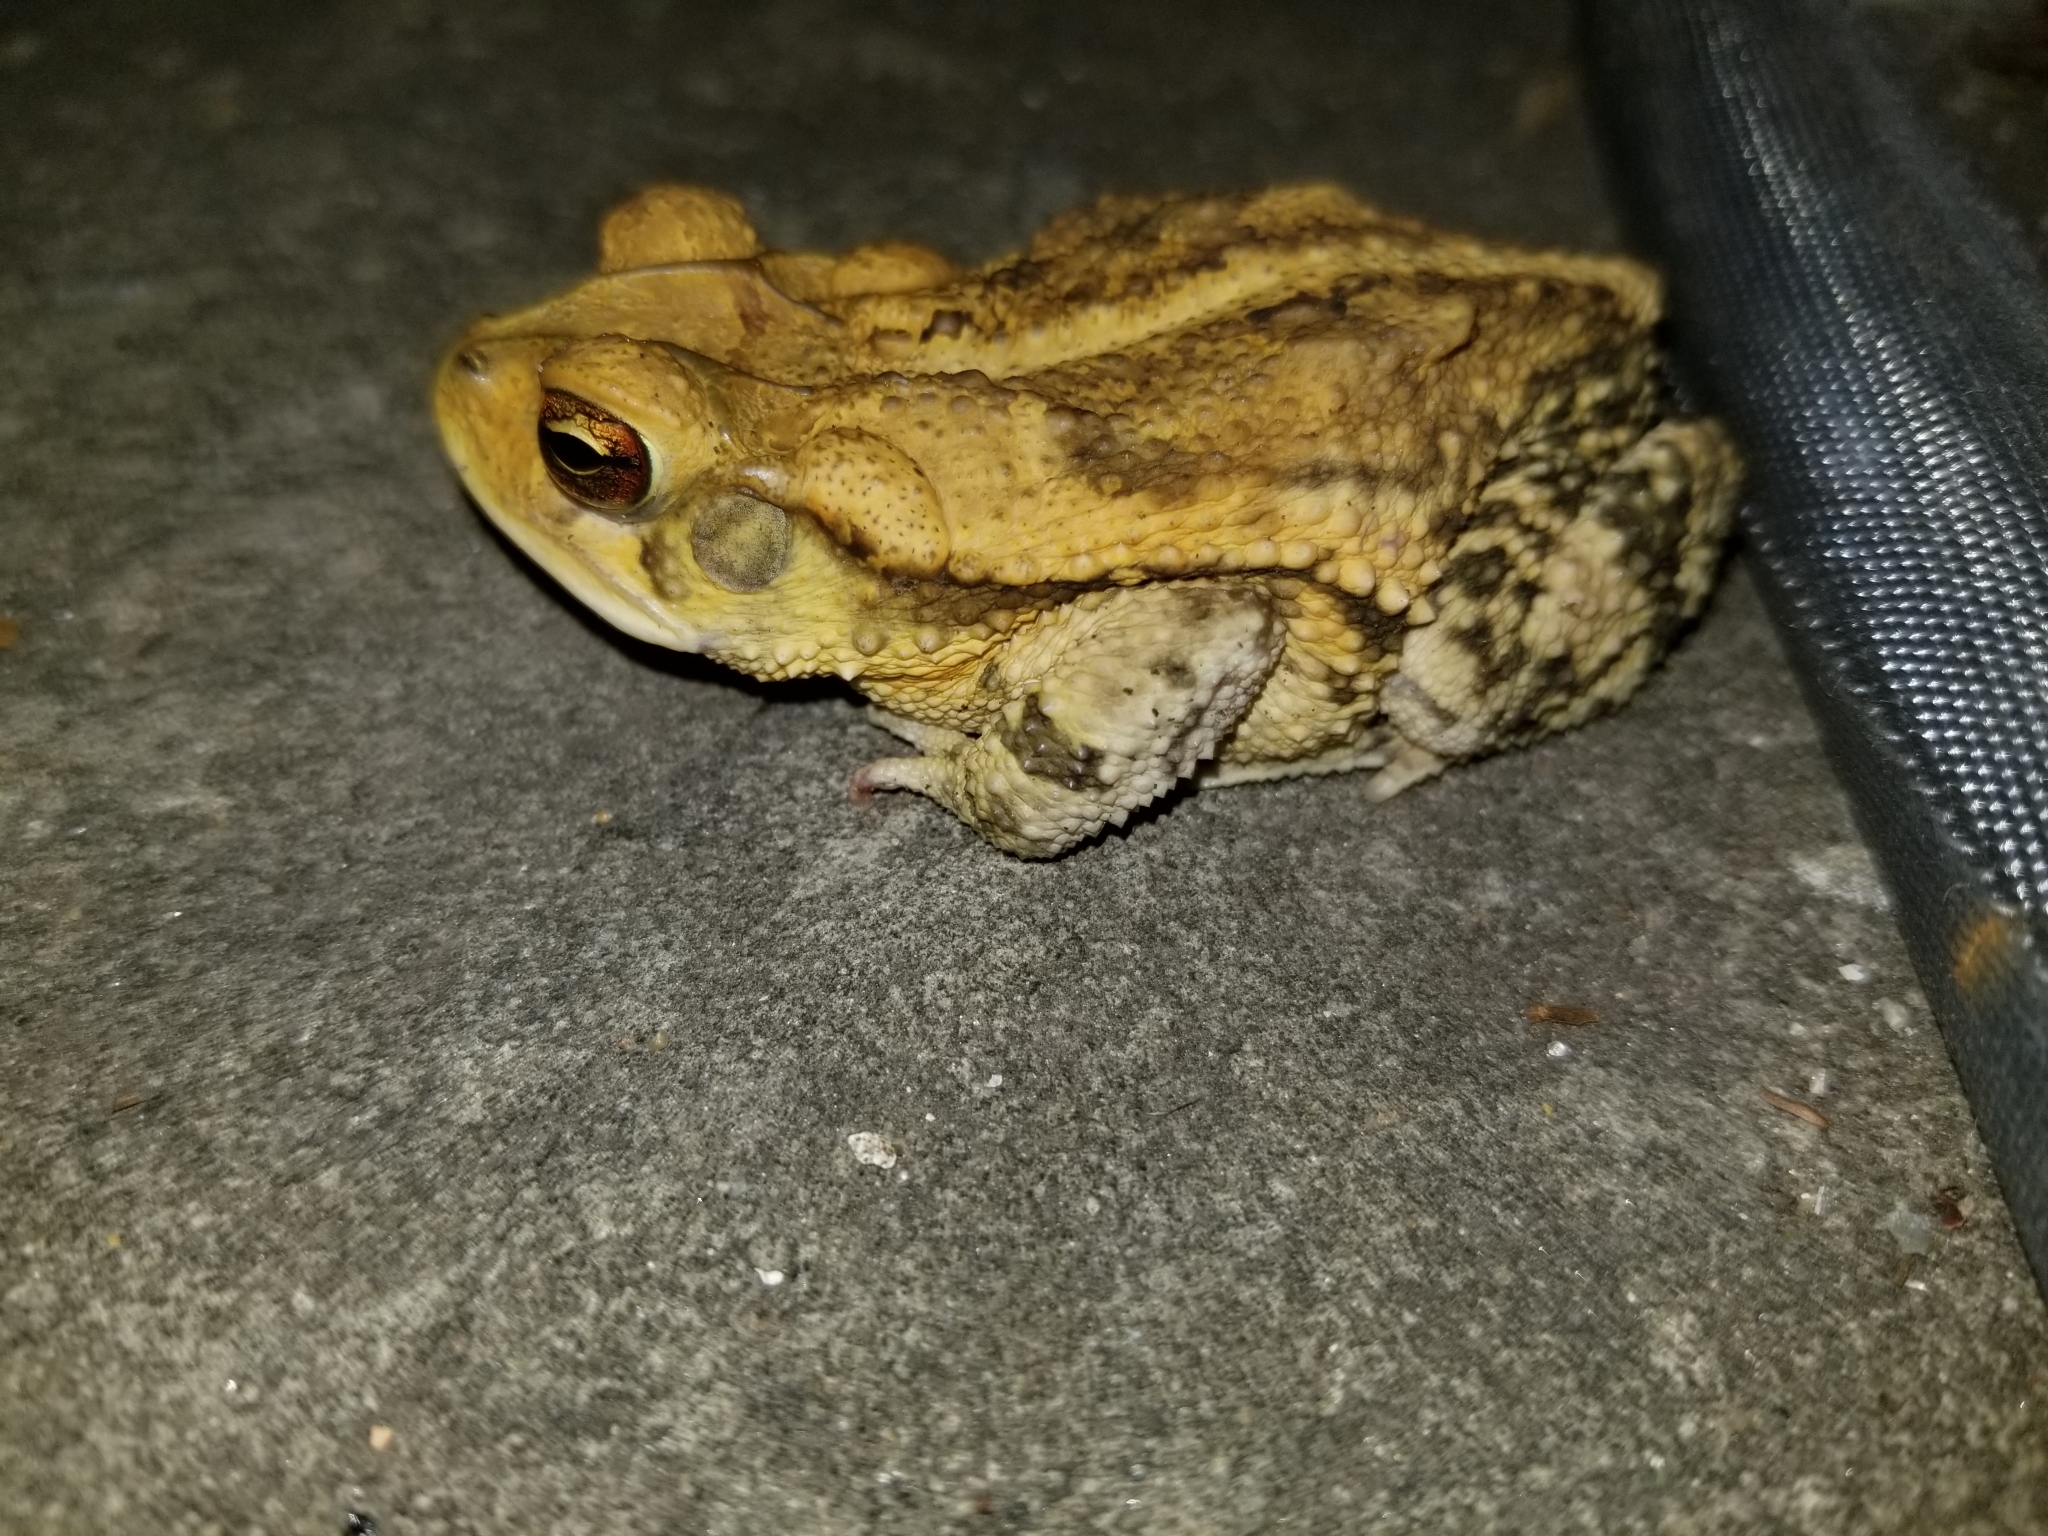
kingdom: Animalia
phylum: Chordata
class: Amphibia
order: Anura
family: Bufonidae
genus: Incilius
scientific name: Incilius nebulifer
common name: Gulf coast toad
